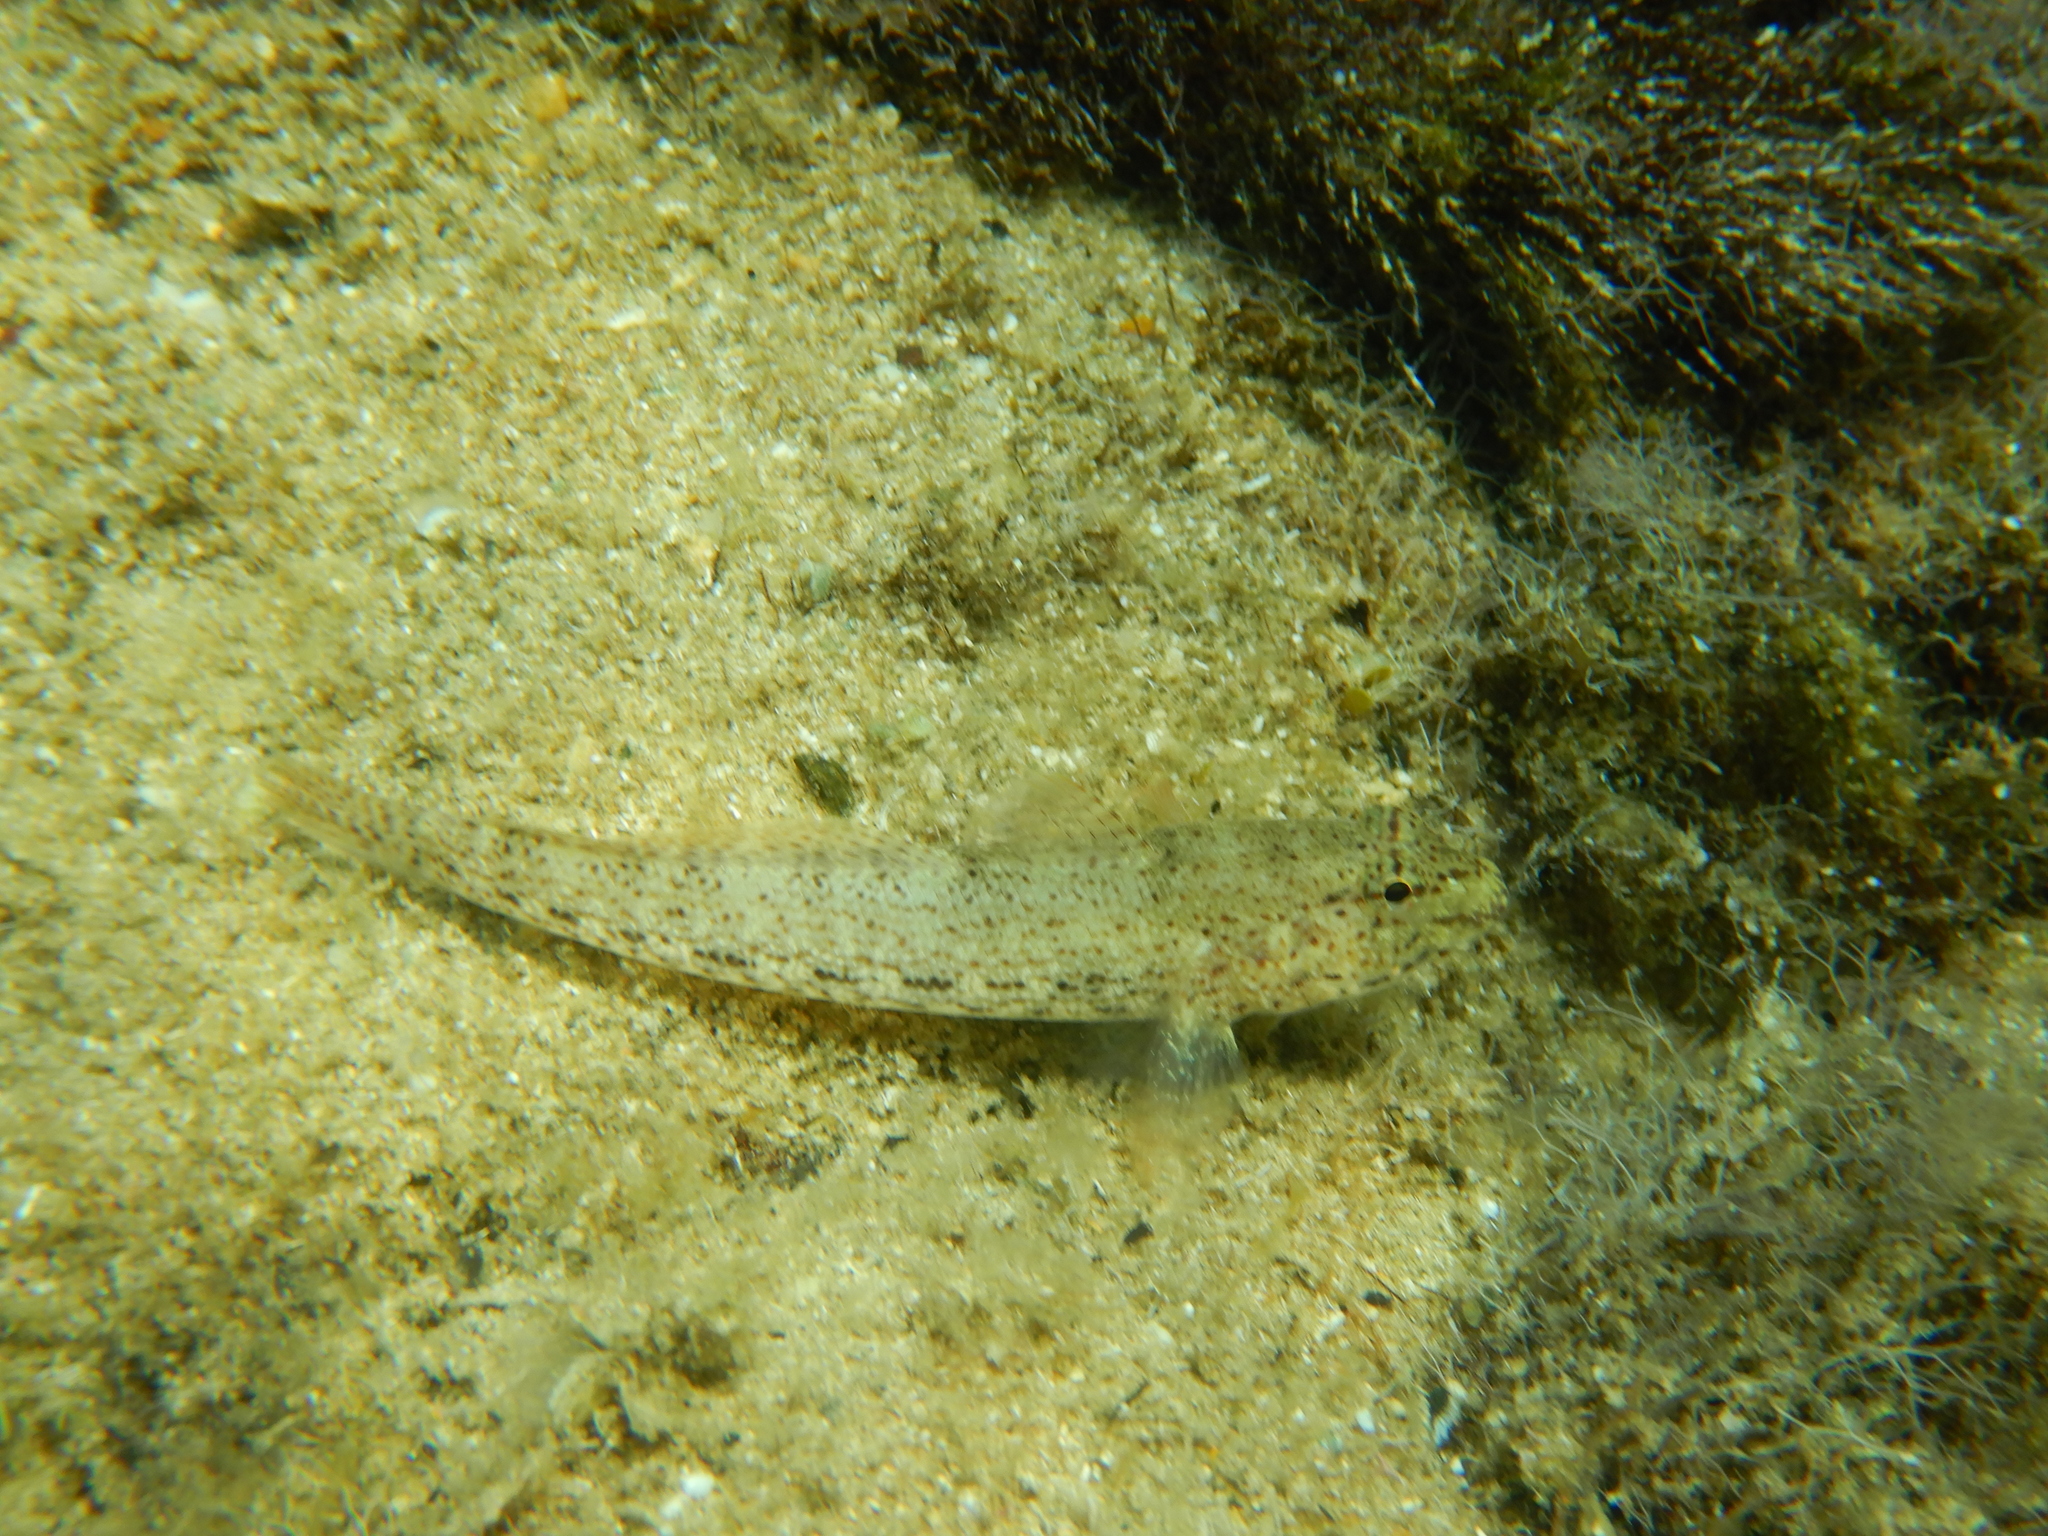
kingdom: Animalia
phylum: Chordata
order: Perciformes
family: Gobiidae
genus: Gobius
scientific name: Gobius incognitus
